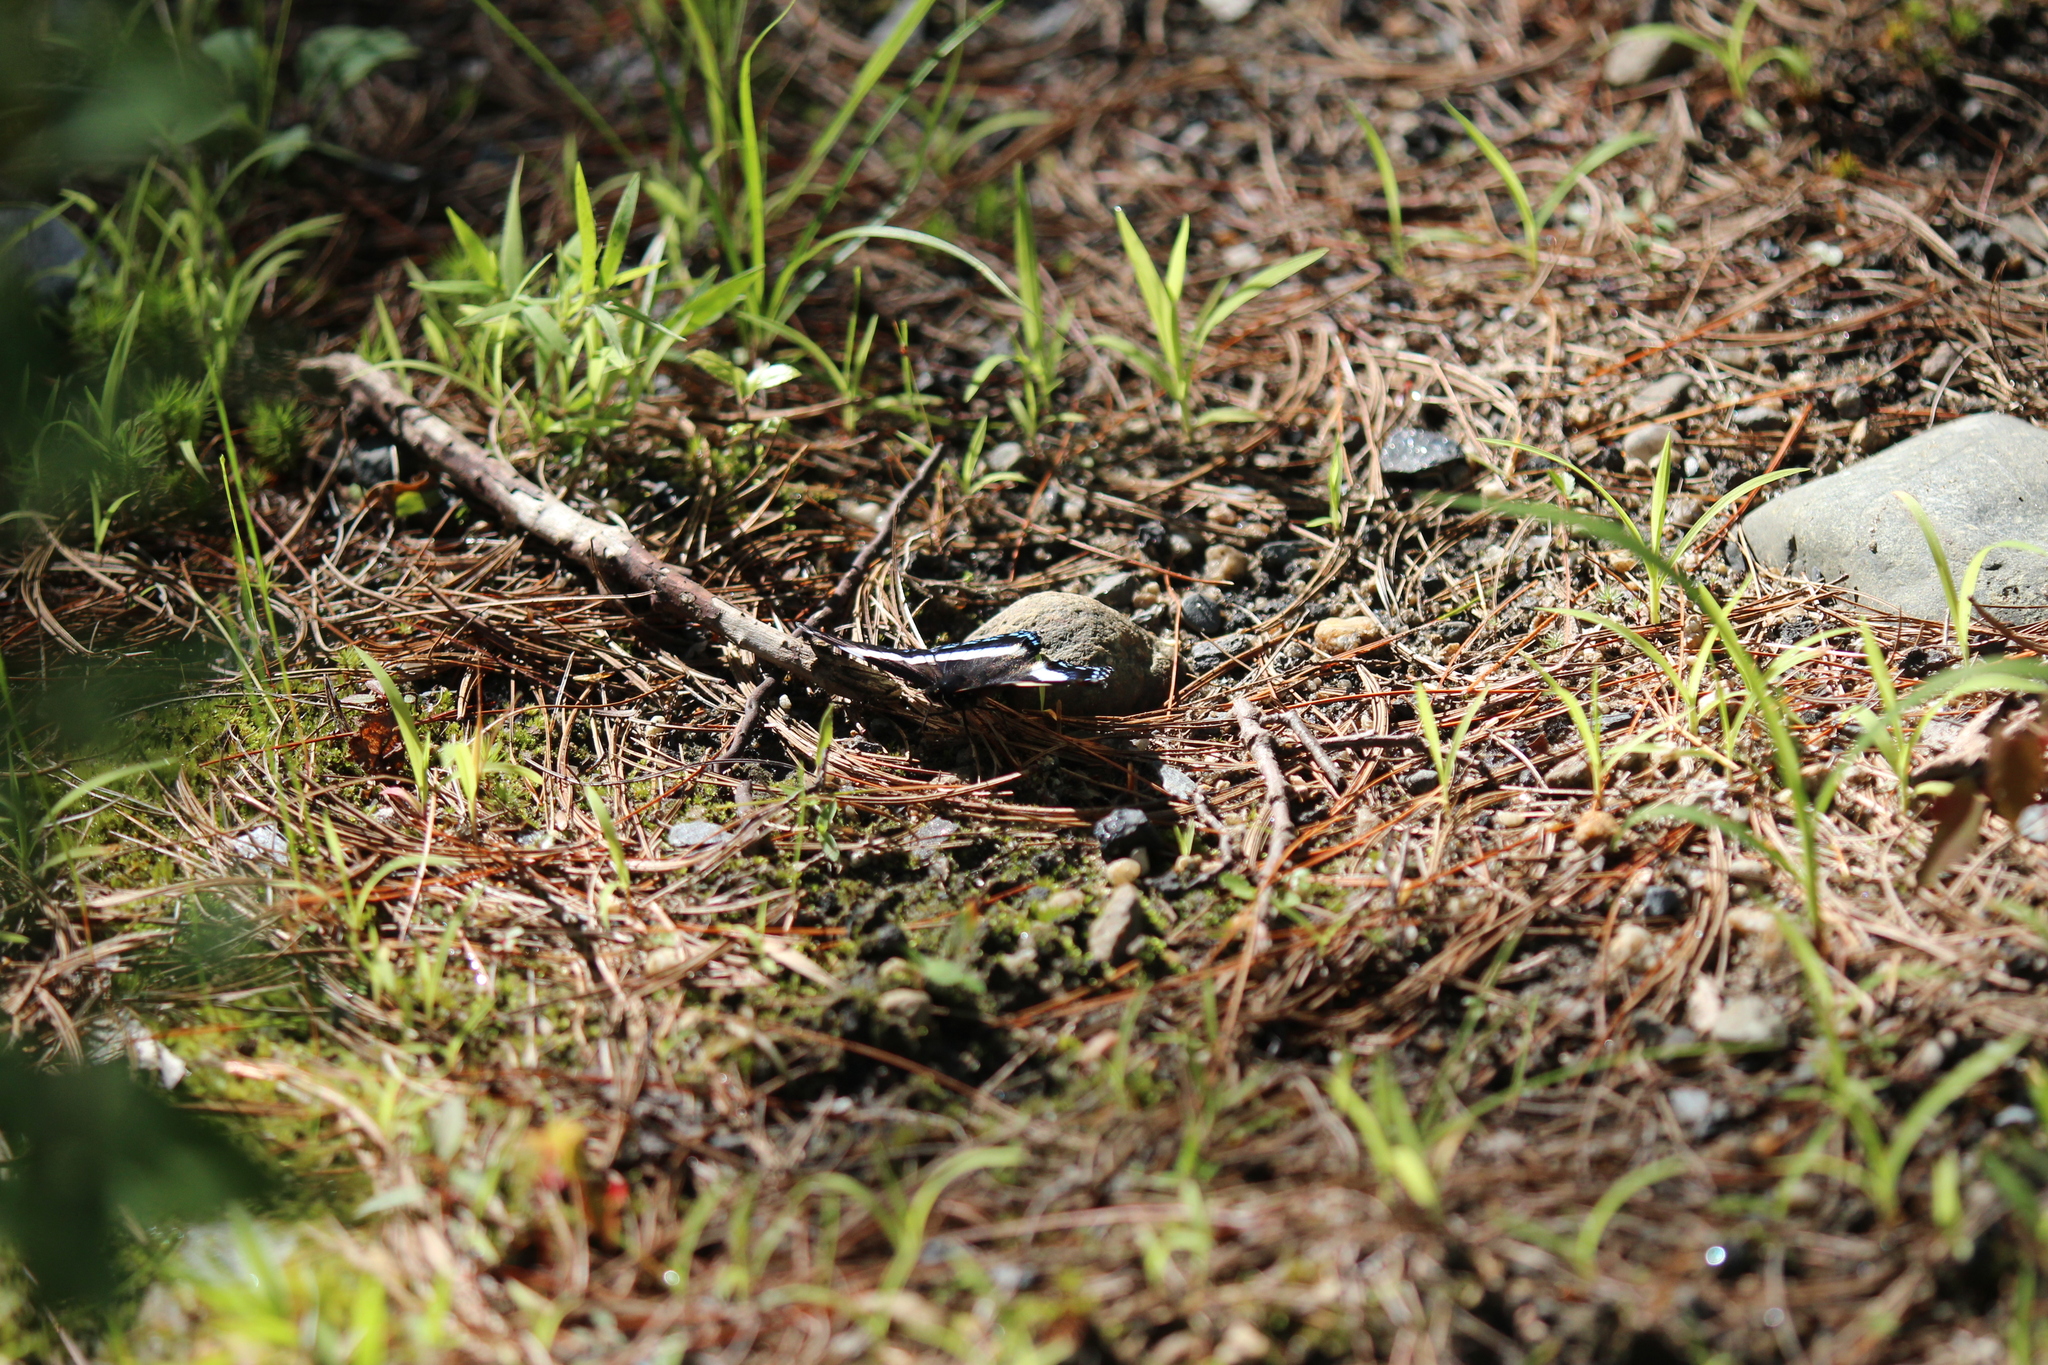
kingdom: Animalia
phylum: Arthropoda
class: Insecta
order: Lepidoptera
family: Nymphalidae
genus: Limenitis
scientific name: Limenitis arthemis
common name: Red-spotted admiral
